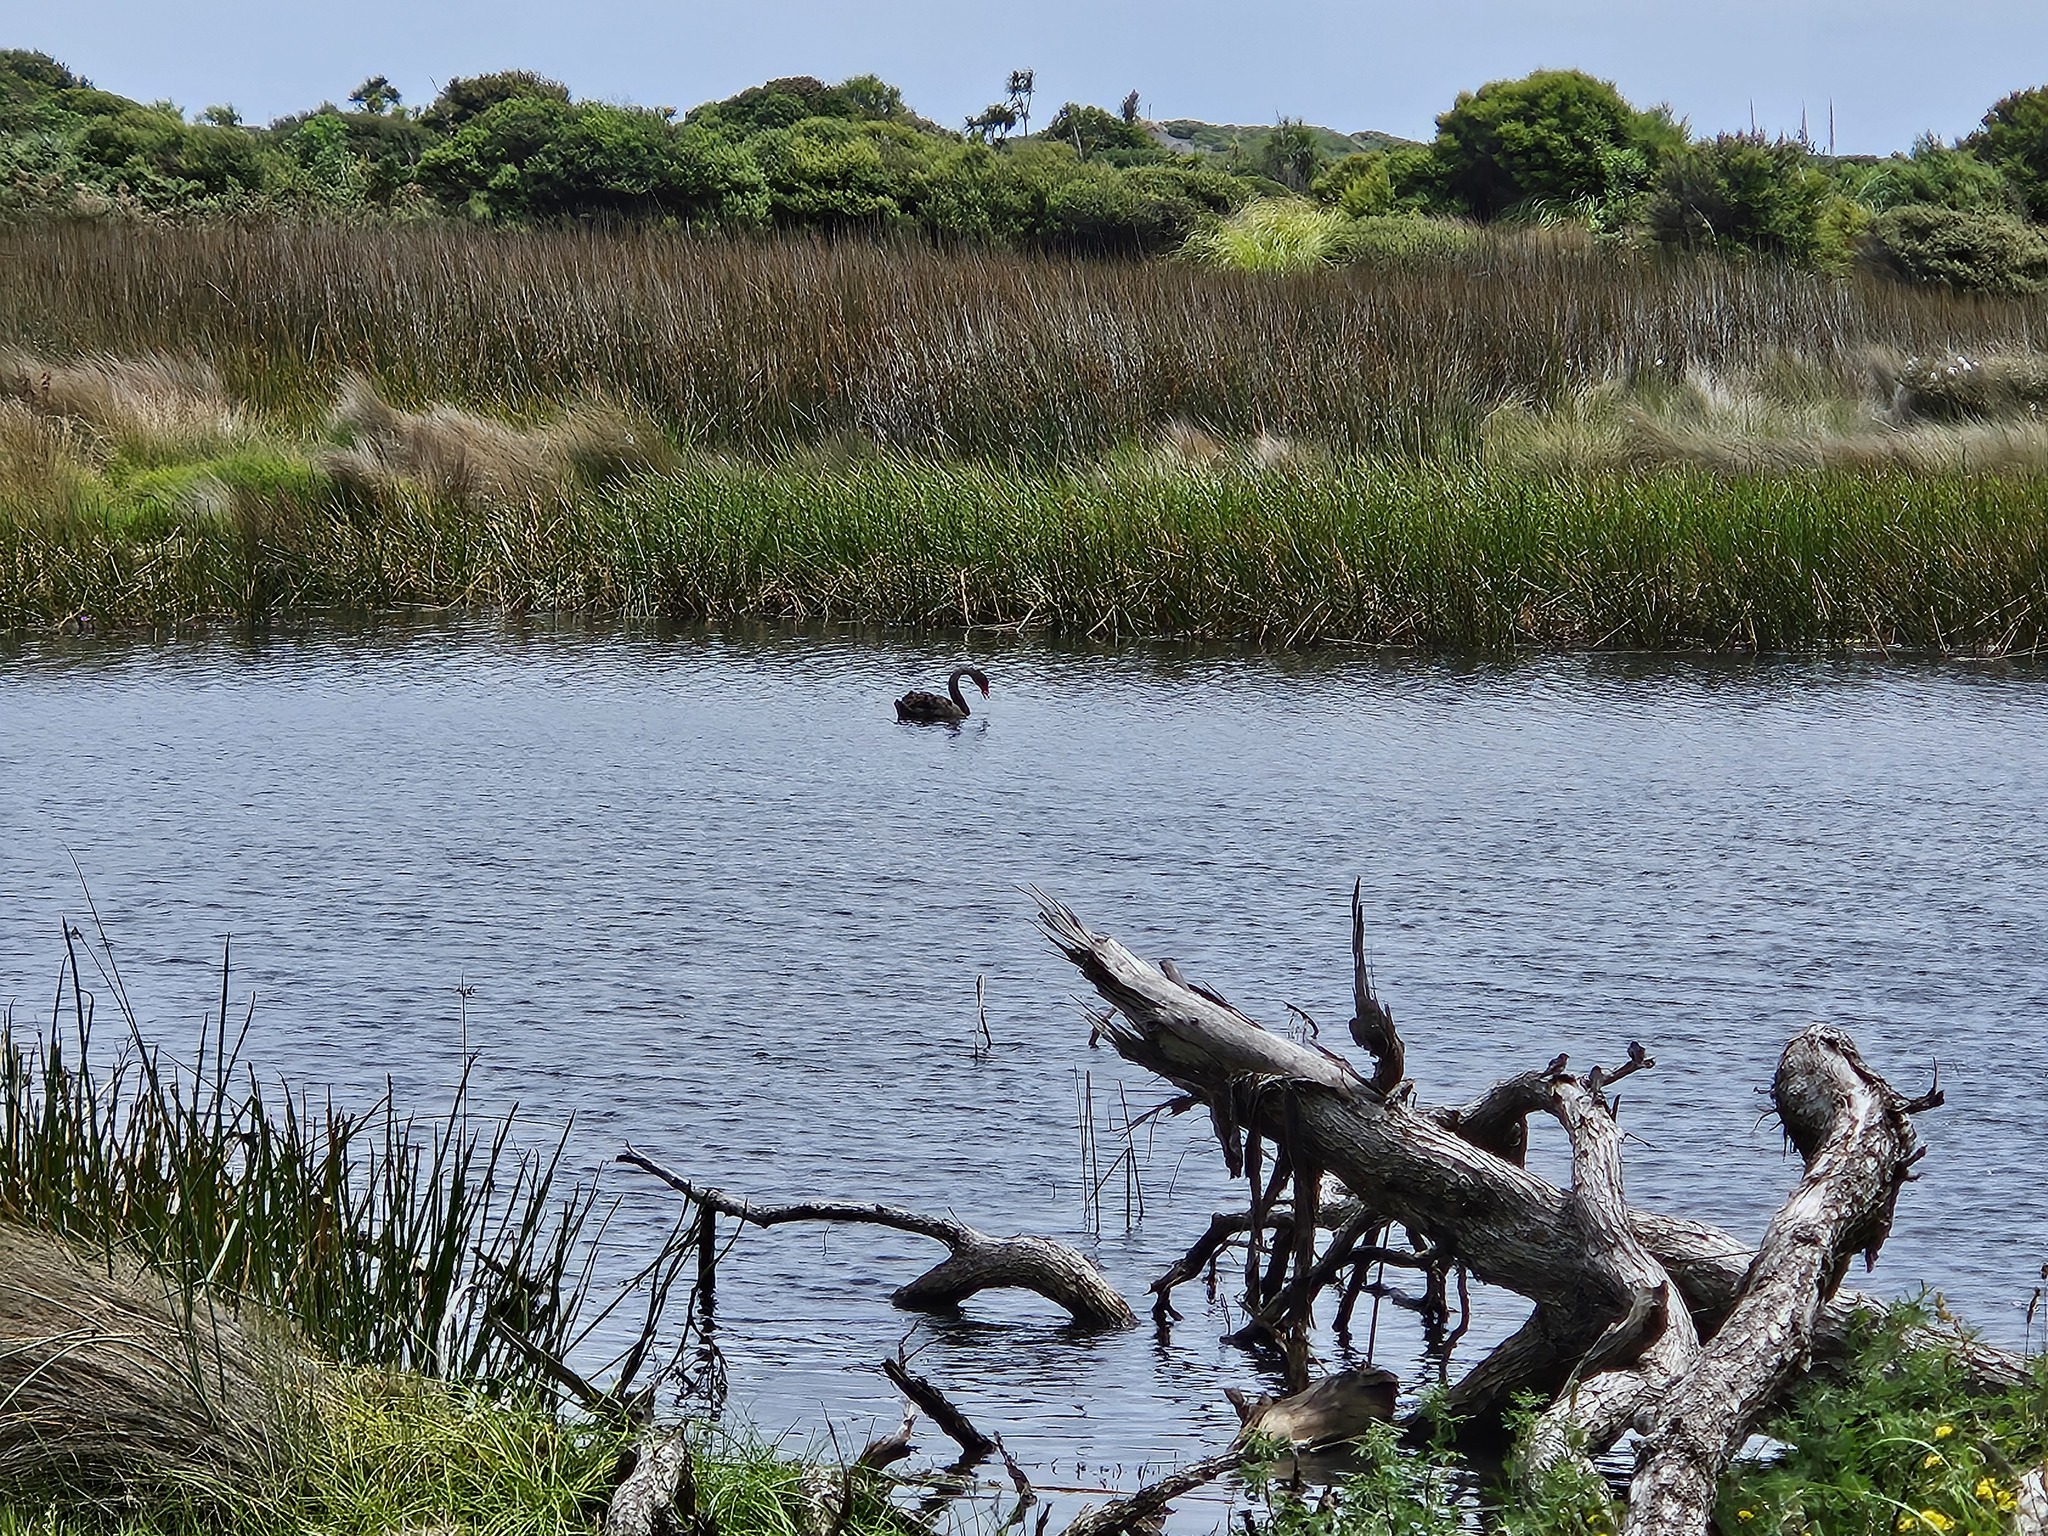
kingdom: Animalia
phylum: Chordata
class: Aves
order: Anseriformes
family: Anatidae
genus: Cygnus
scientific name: Cygnus atratus
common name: Black swan
